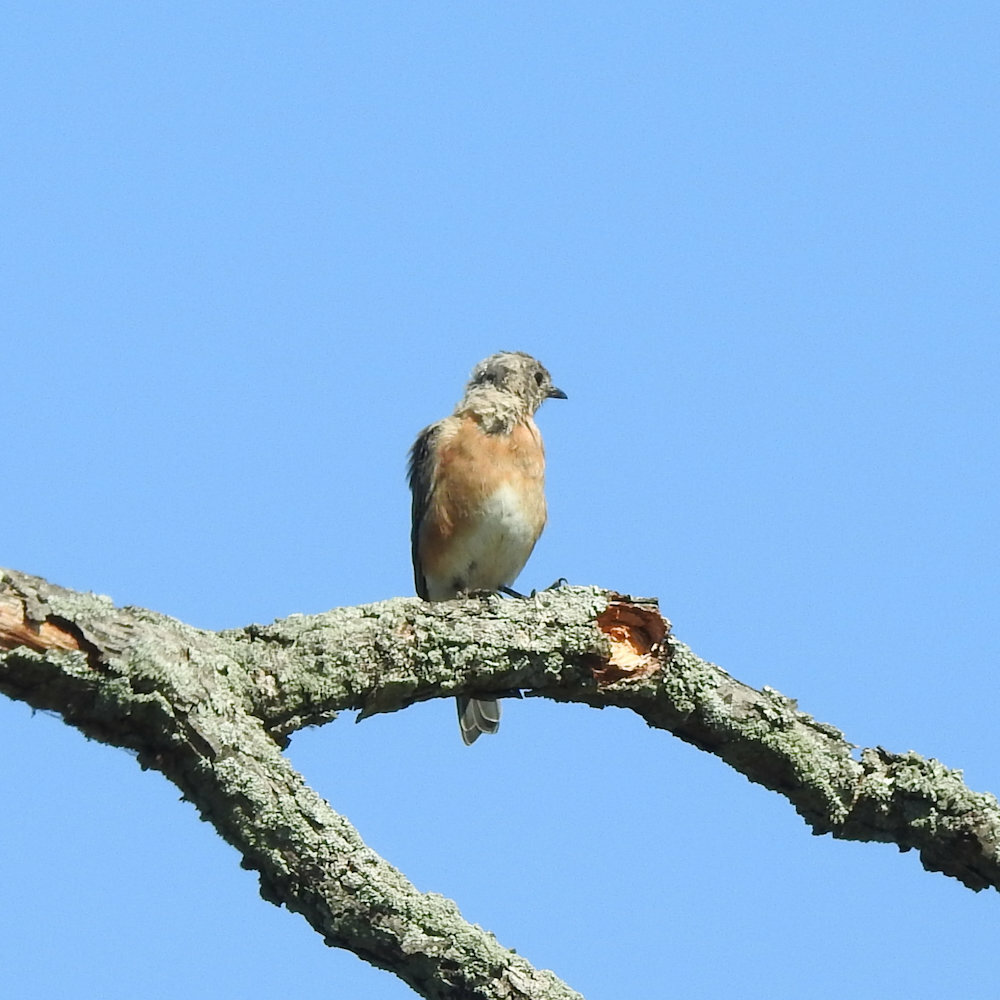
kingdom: Animalia
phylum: Chordata
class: Aves
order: Passeriformes
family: Turdidae
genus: Sialia
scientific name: Sialia sialis
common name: Eastern bluebird
